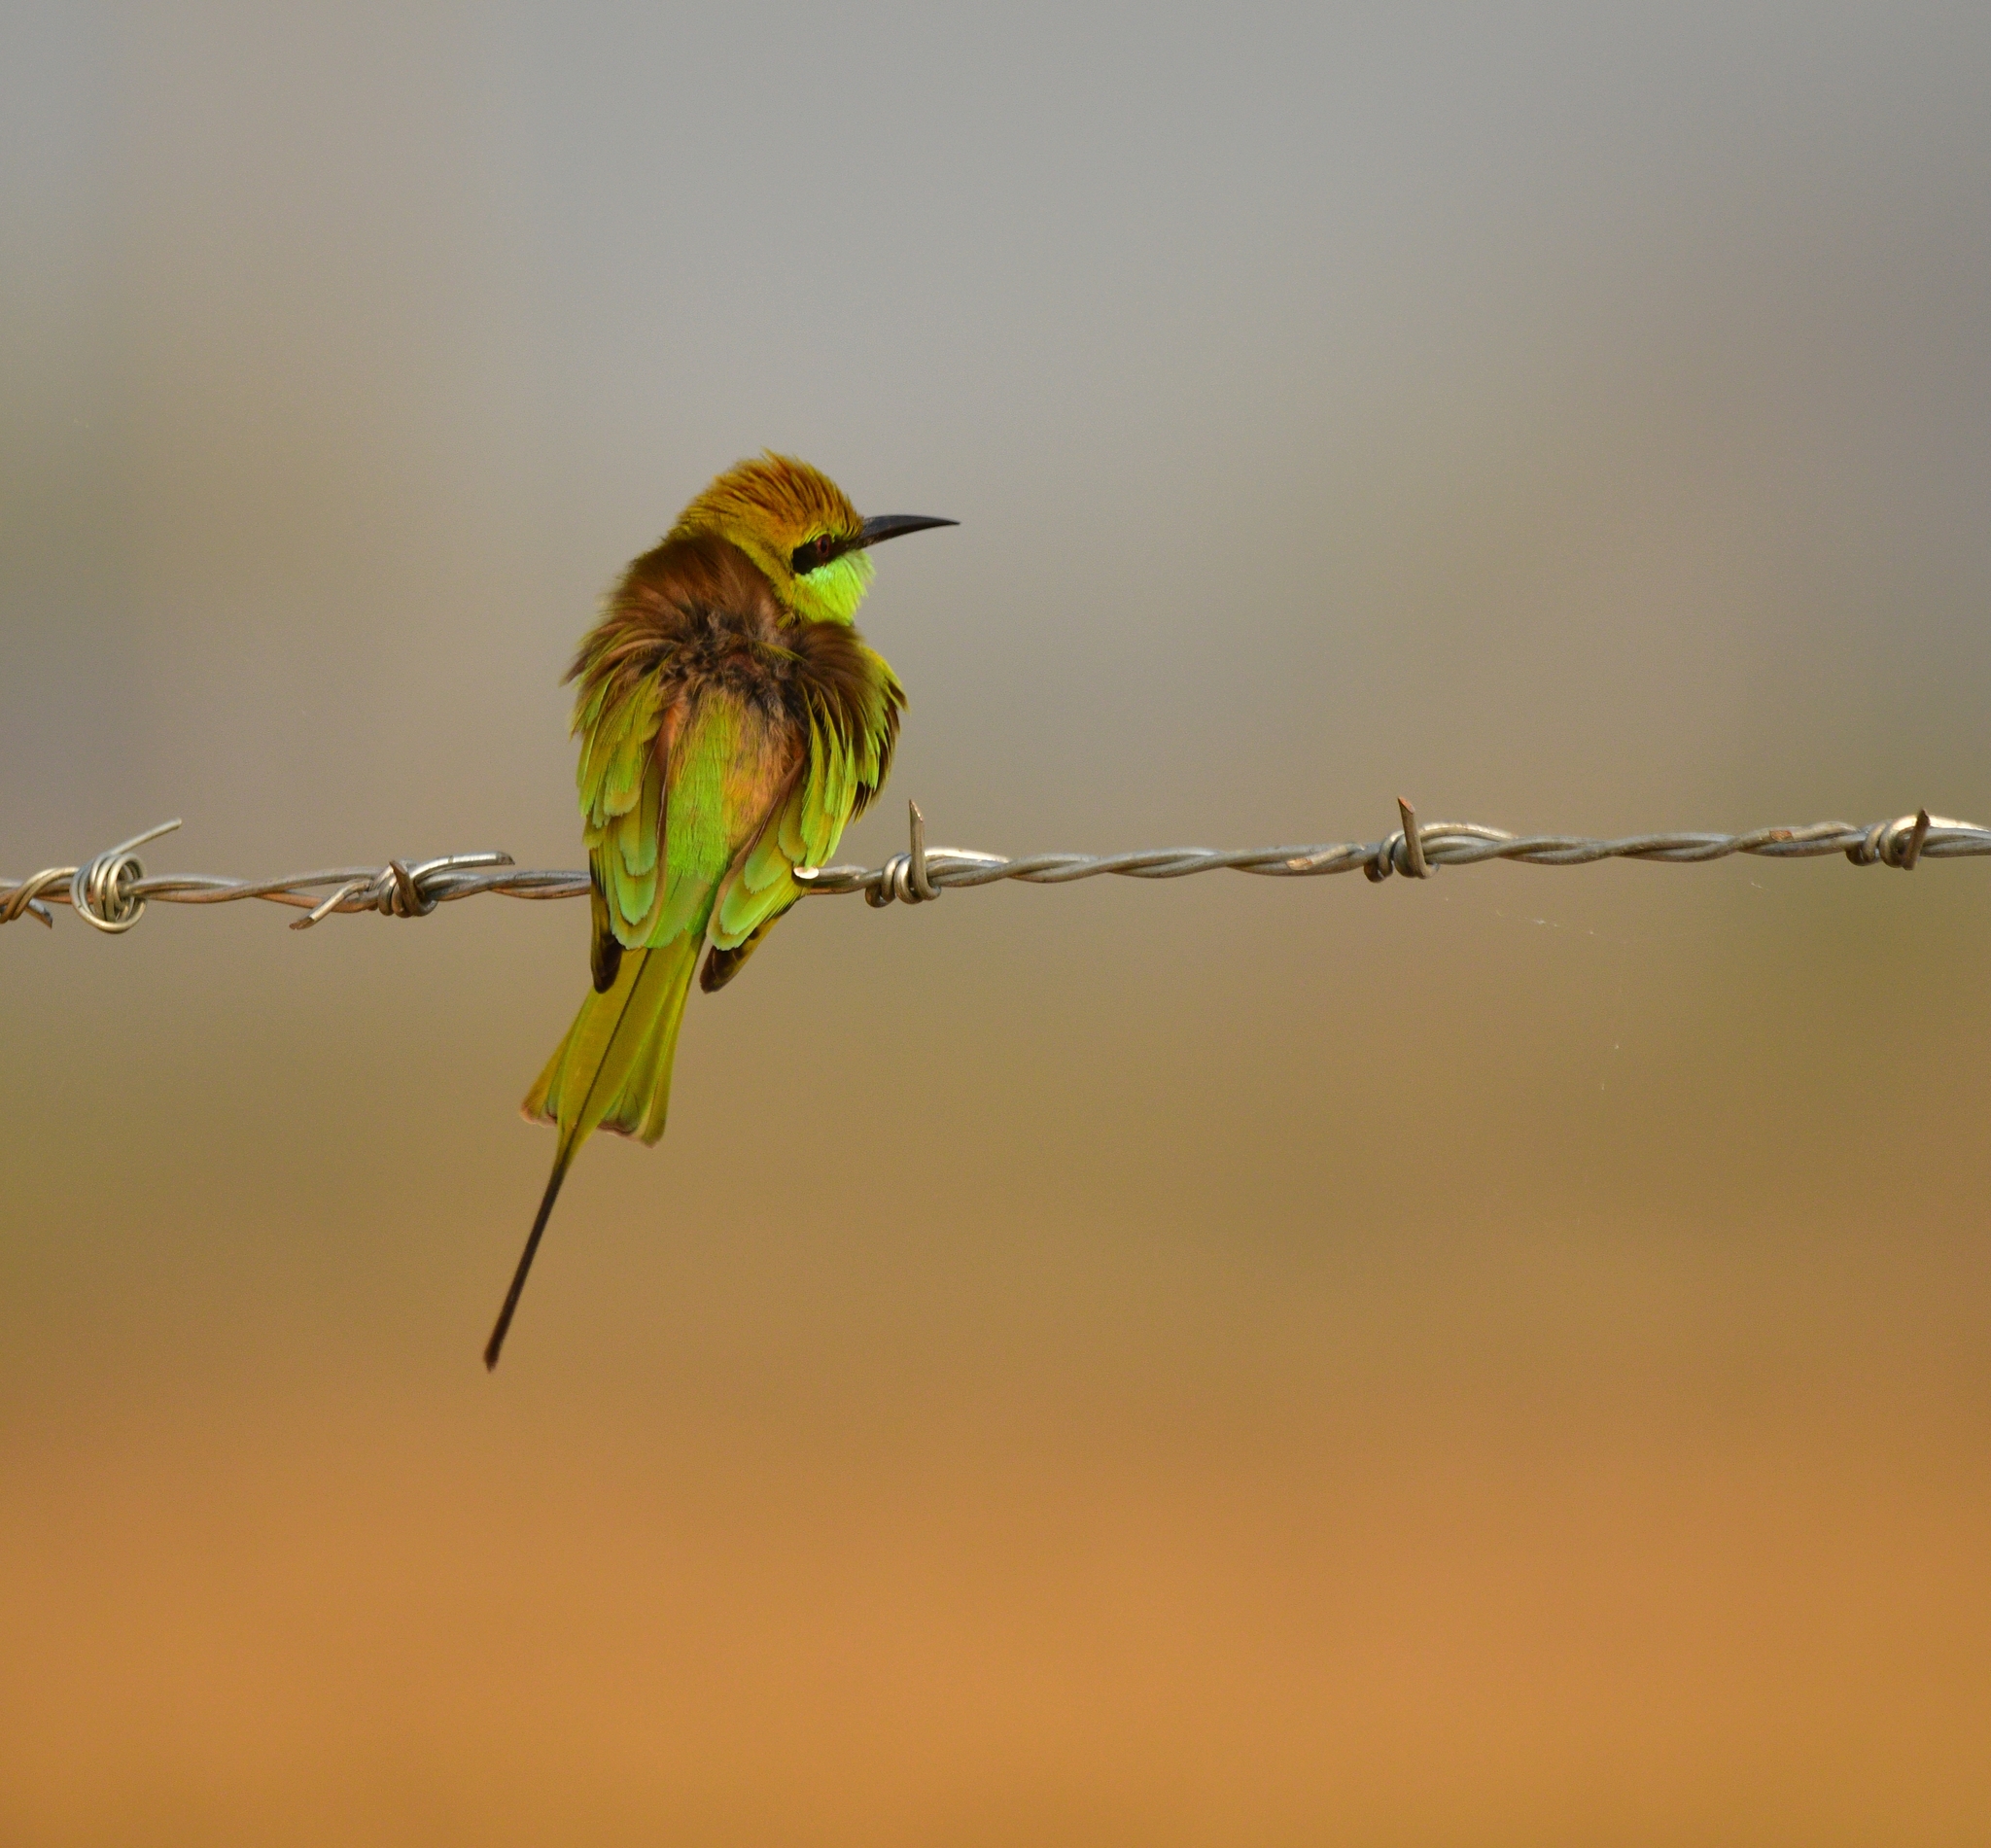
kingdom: Animalia
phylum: Chordata
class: Aves
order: Coraciiformes
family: Meropidae
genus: Merops
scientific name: Merops orientalis
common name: Green bee-eater
